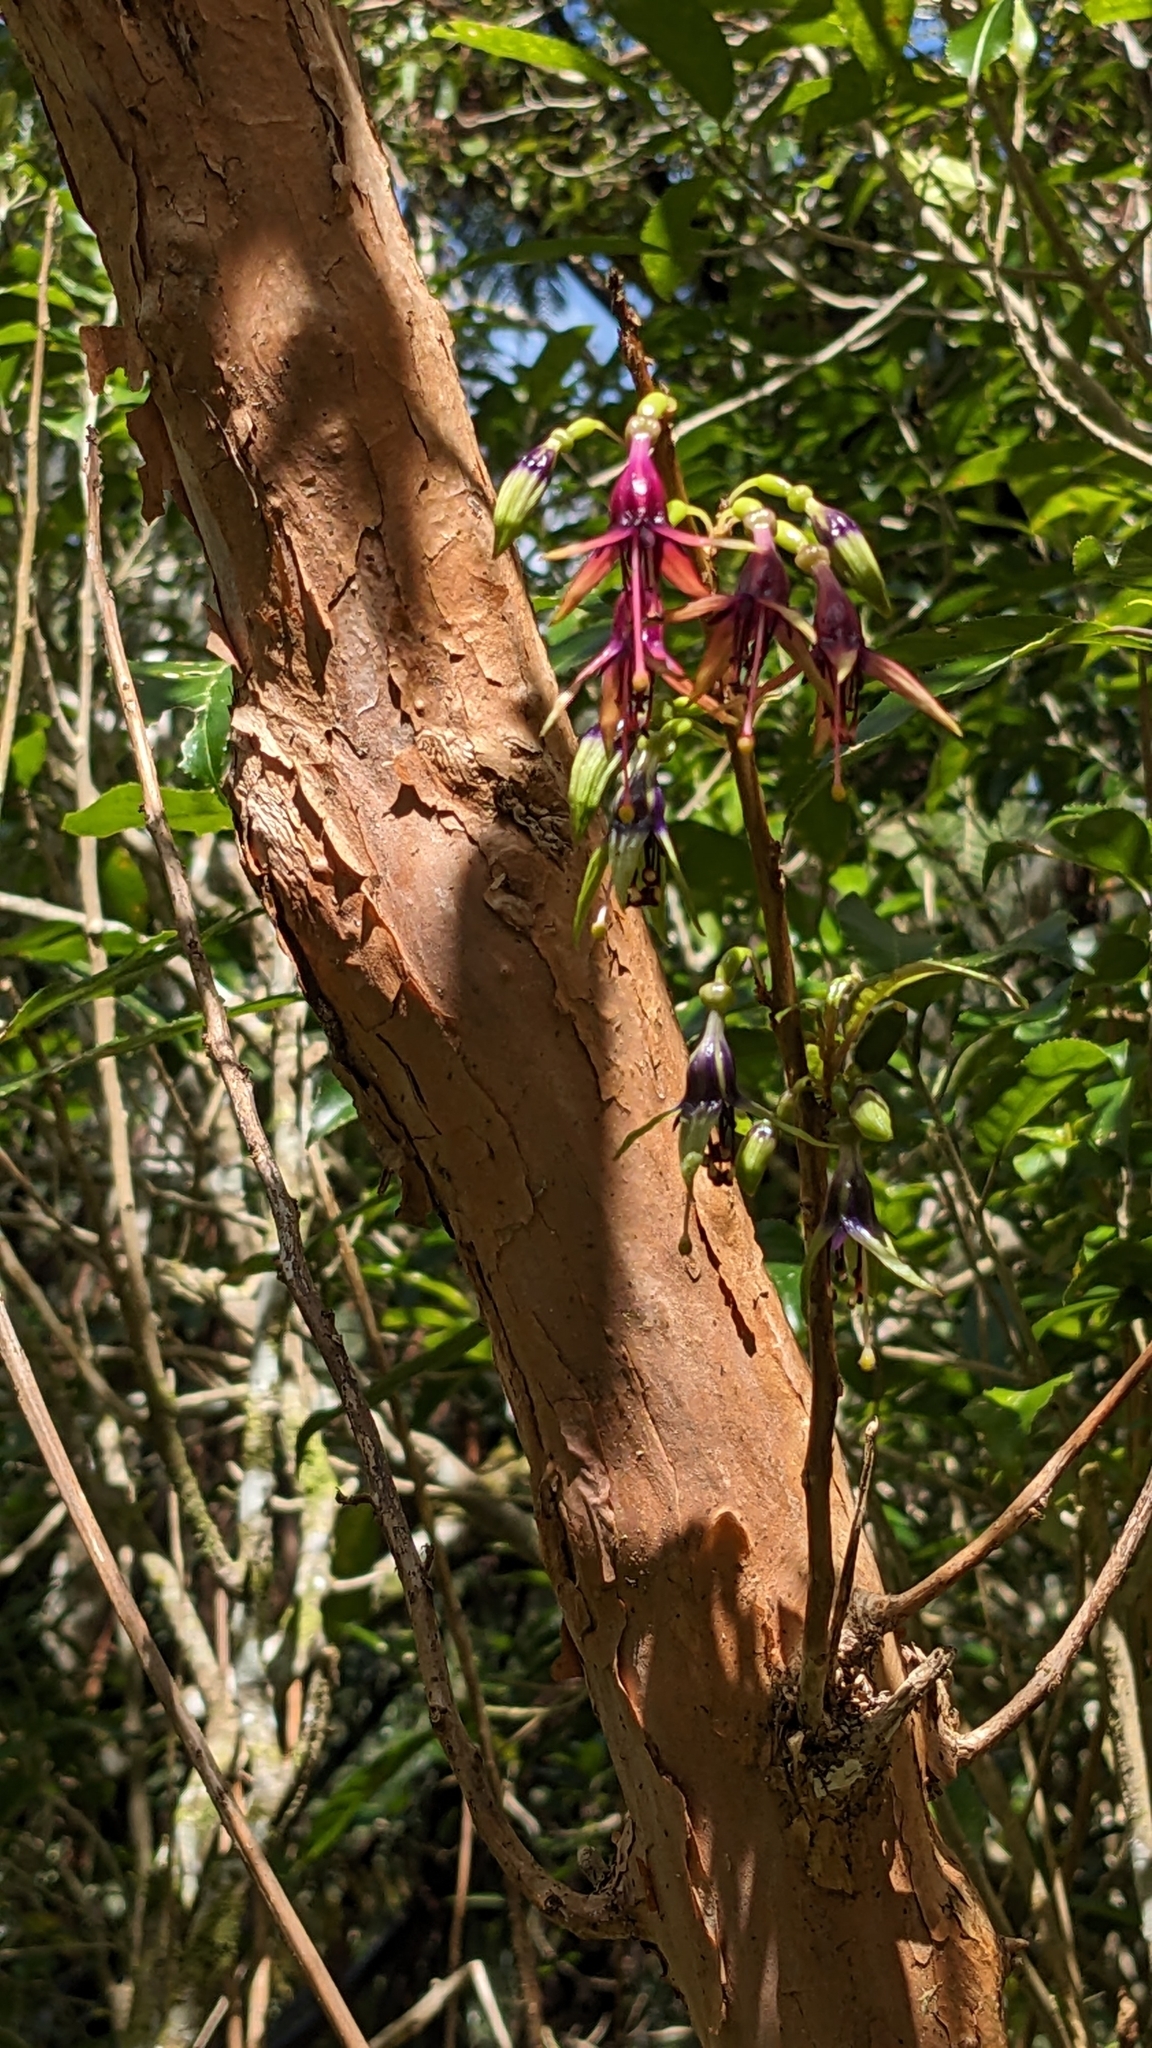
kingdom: Plantae
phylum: Tracheophyta
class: Magnoliopsida
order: Myrtales
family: Onagraceae
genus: Fuchsia
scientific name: Fuchsia excorticata
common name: Tree fuchsia
